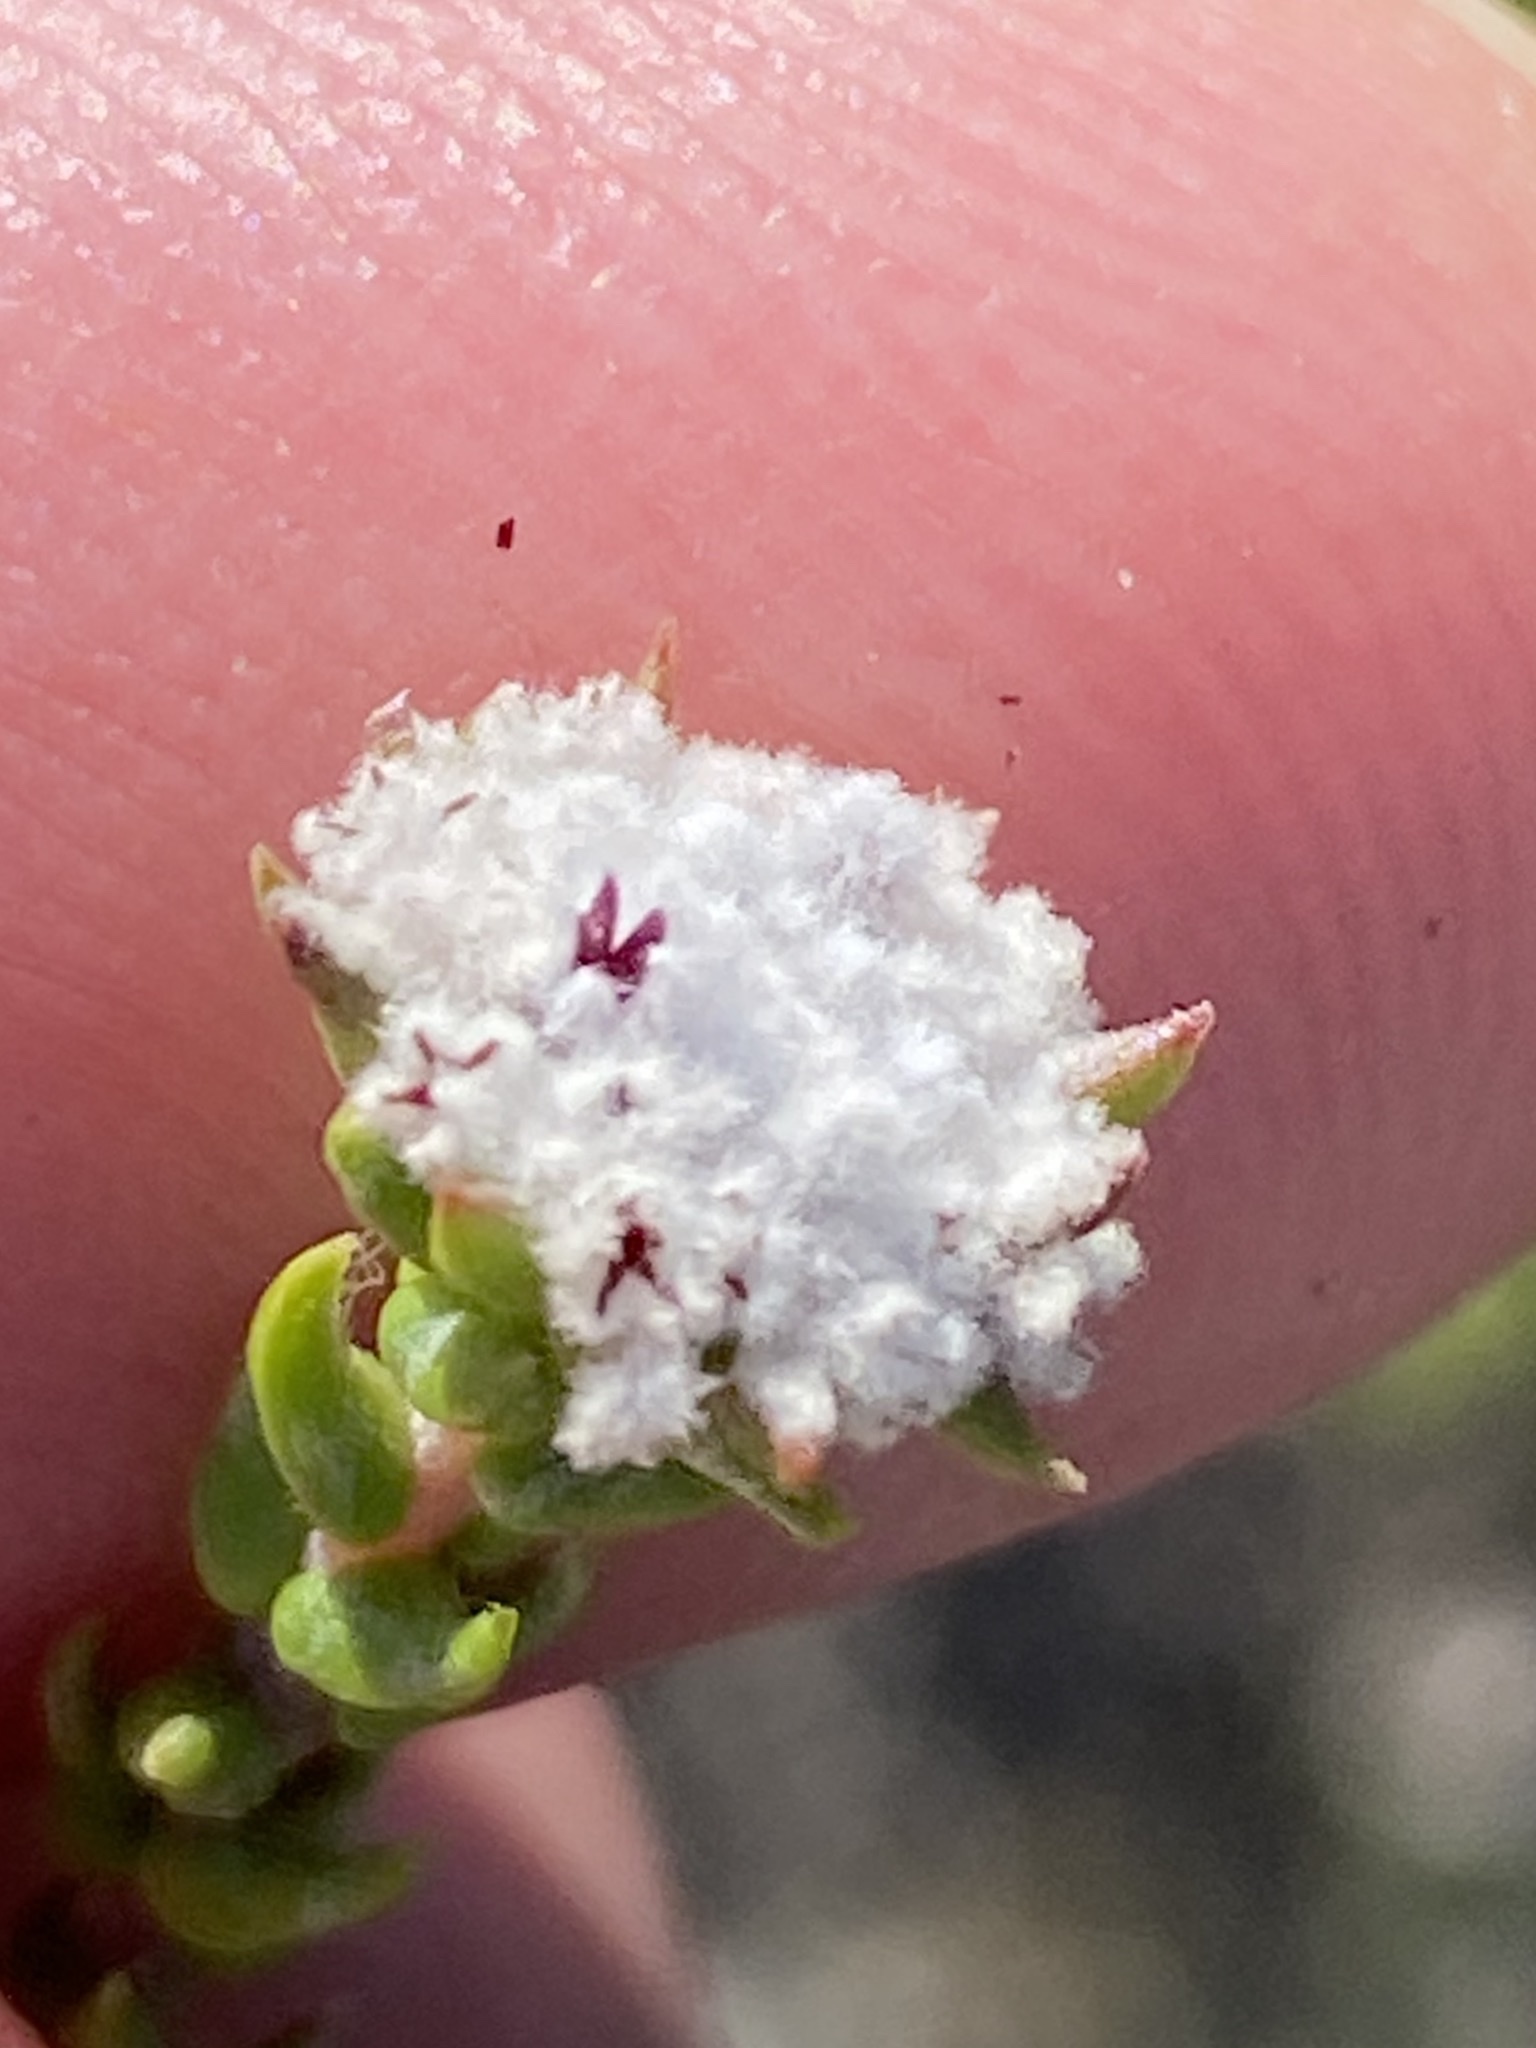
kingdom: Plantae
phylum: Tracheophyta
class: Magnoliopsida
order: Rosales
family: Rhamnaceae
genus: Phylica
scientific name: Phylica debilis
